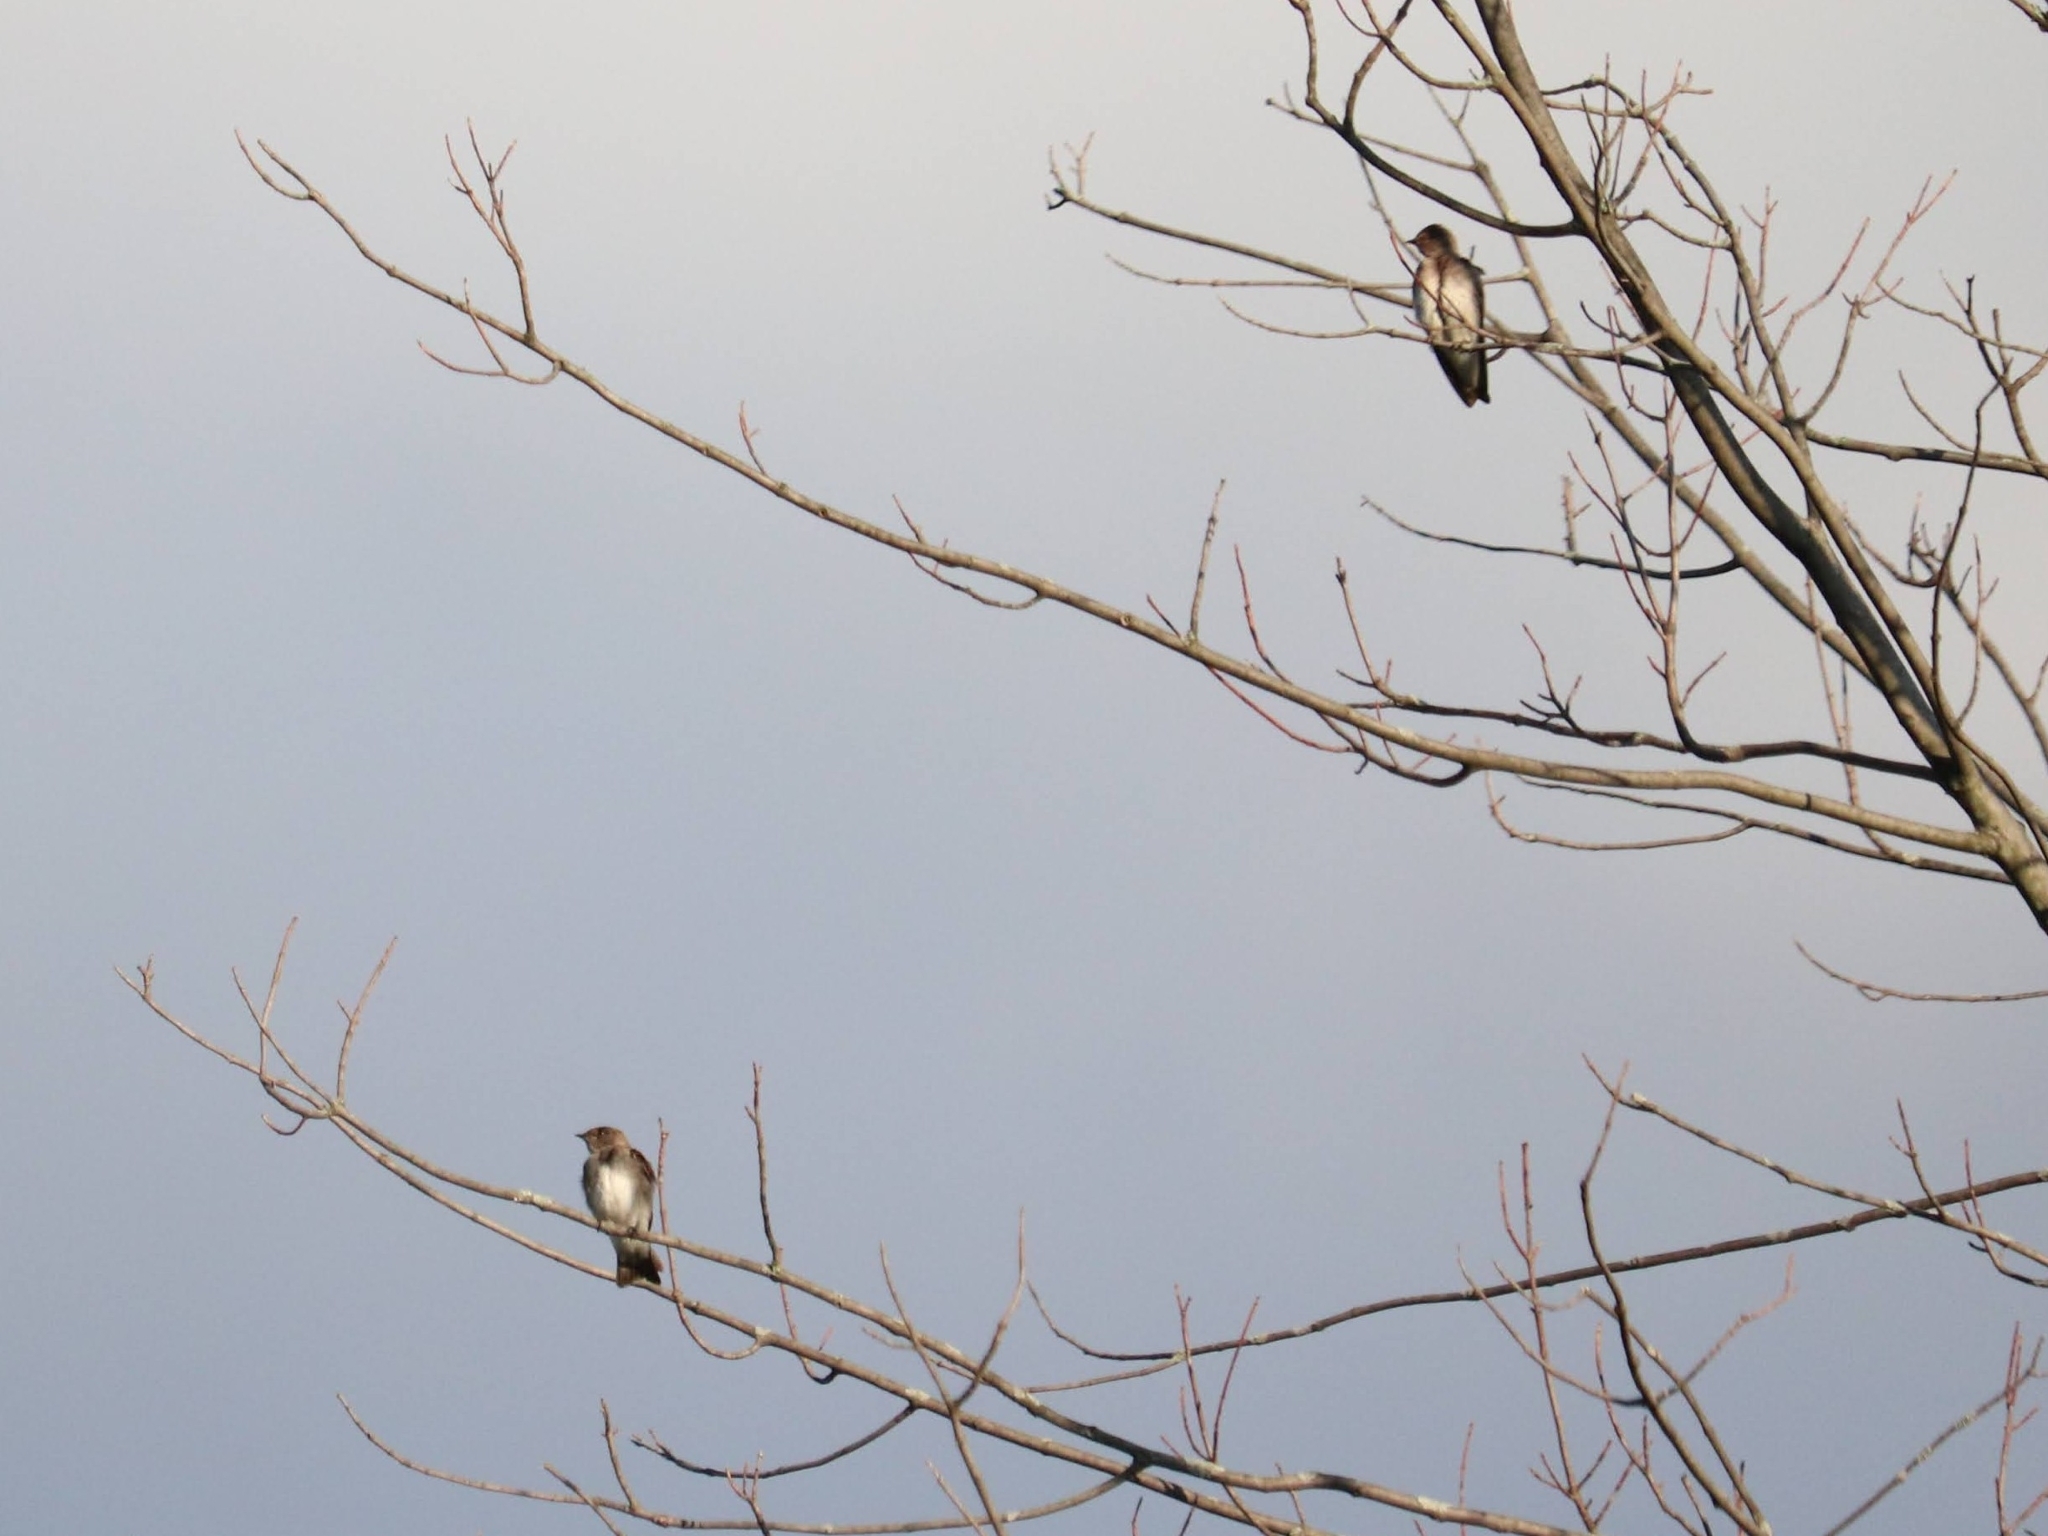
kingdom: Animalia
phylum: Chordata
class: Aves
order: Passeriformes
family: Hirundinidae
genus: Stelgidopteryx
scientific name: Stelgidopteryx serripennis
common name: Northern rough-winged swallow
